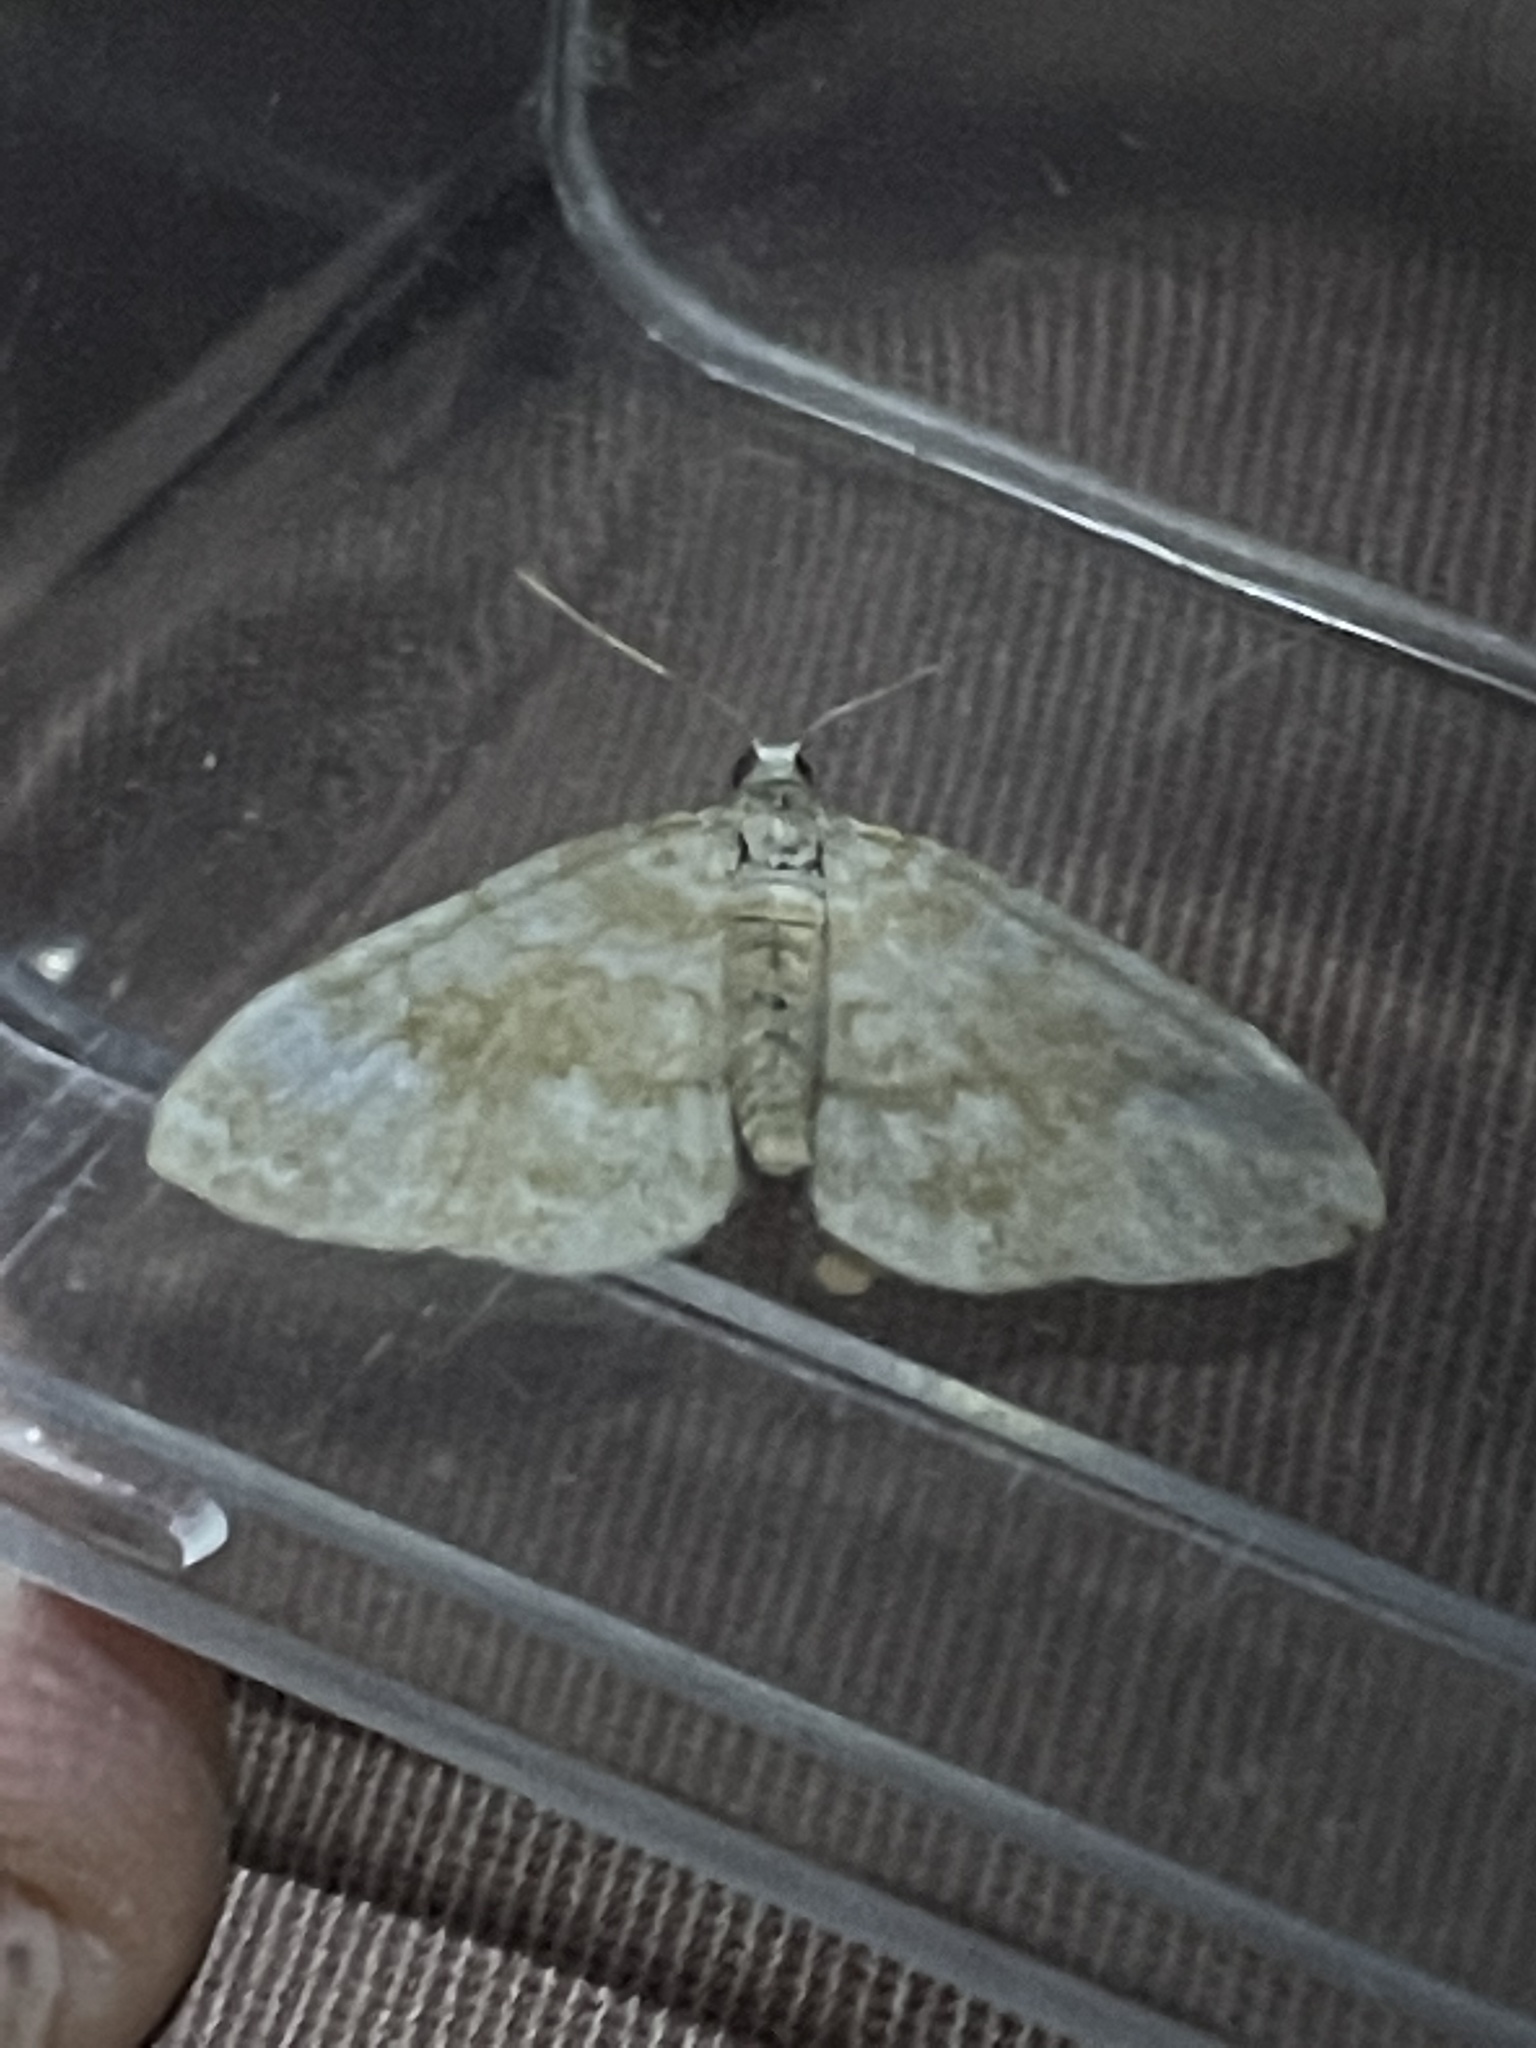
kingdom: Animalia
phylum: Arthropoda
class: Insecta
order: Lepidoptera
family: Geometridae
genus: Perizoma
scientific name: Perizoma flavofasciata
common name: Sandy carpet
